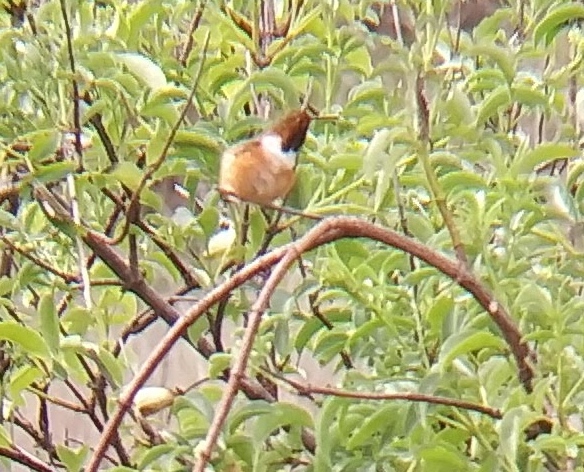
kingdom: Animalia
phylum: Chordata
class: Aves
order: Apodiformes
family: Trochilidae
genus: Selasphorus
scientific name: Selasphorus sasin
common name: Allen's hummingbird
